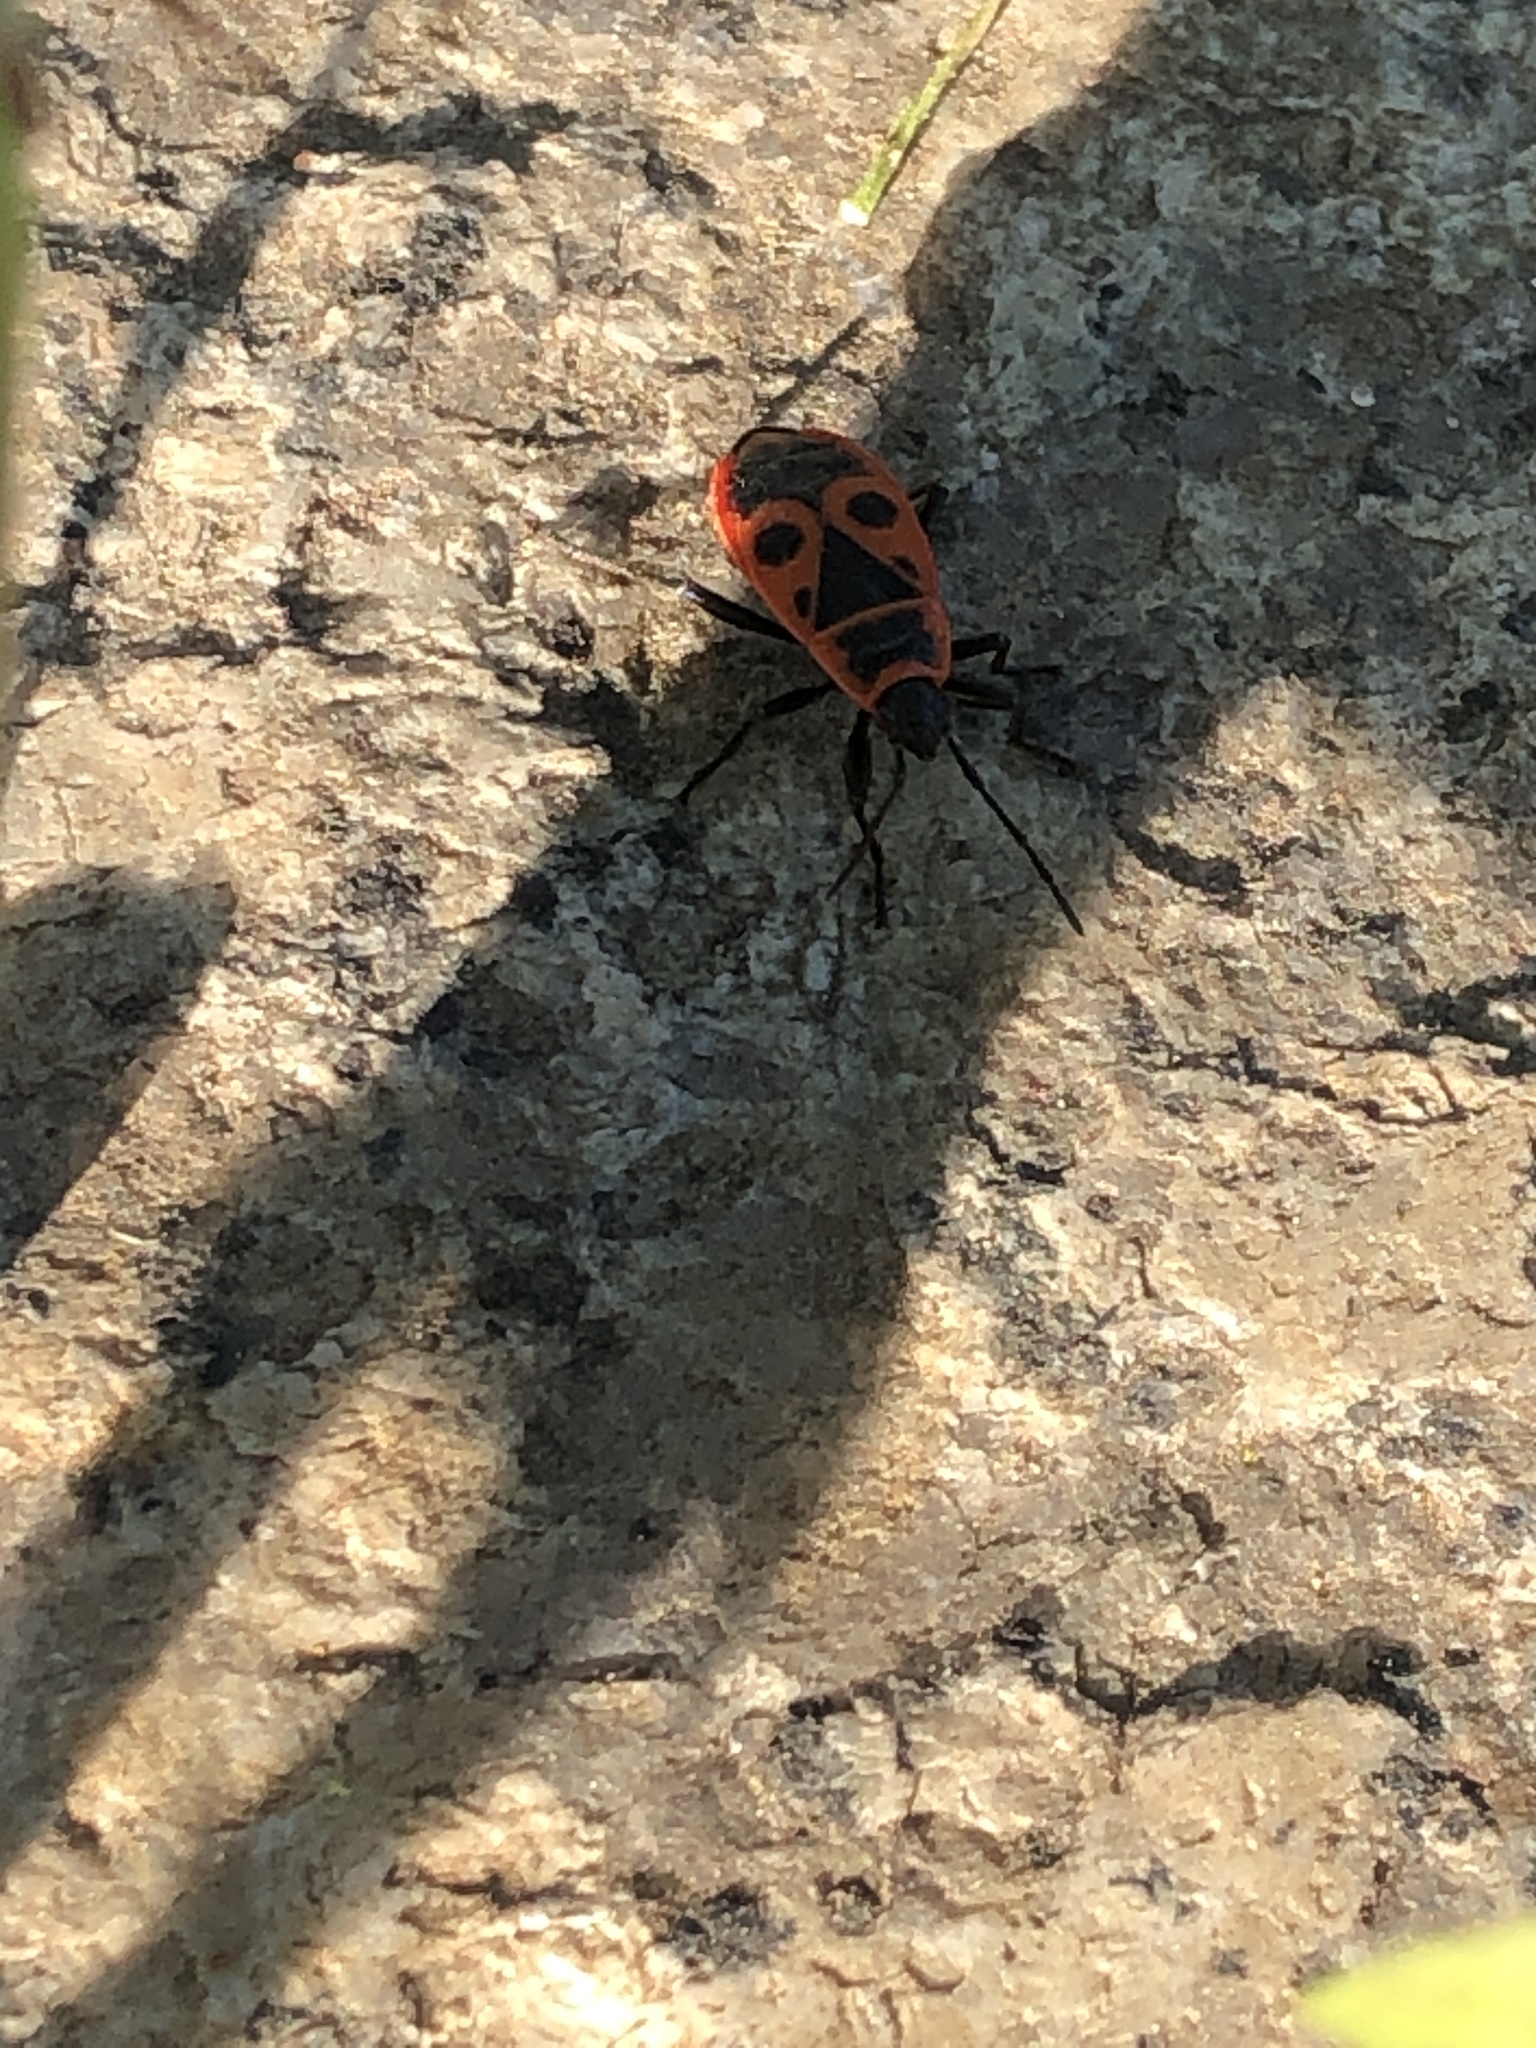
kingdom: Animalia
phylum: Arthropoda
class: Insecta
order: Hemiptera
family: Pyrrhocoridae
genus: Pyrrhocoris
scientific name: Pyrrhocoris apterus
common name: Firebug
